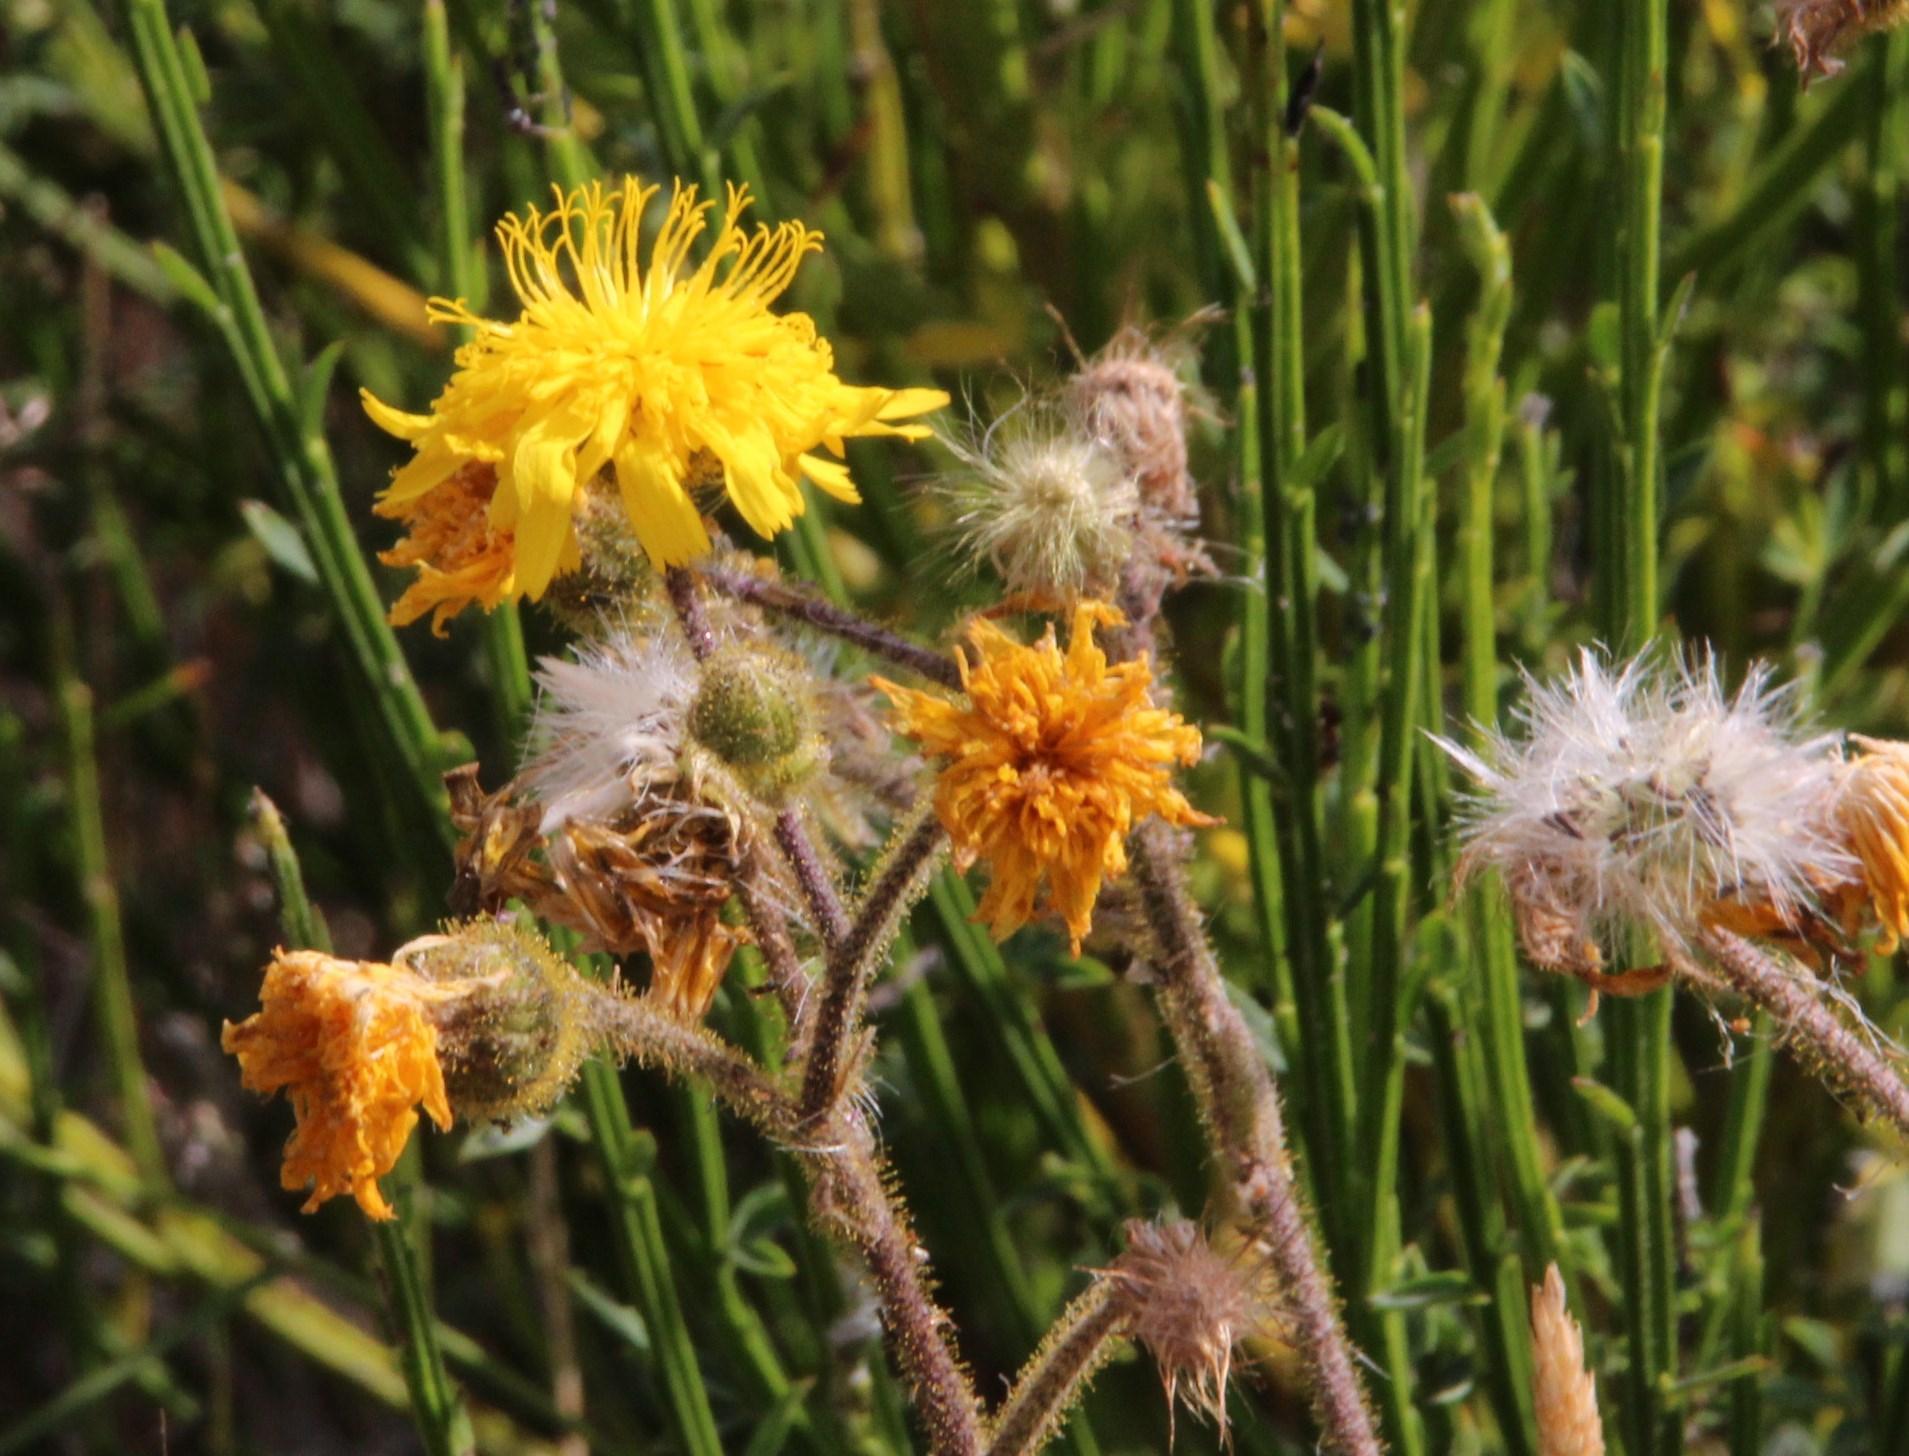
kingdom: Plantae
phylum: Tracheophyta
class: Magnoliopsida
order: Asterales
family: Asteraceae
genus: Andryala
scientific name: Andryala glandulosa
